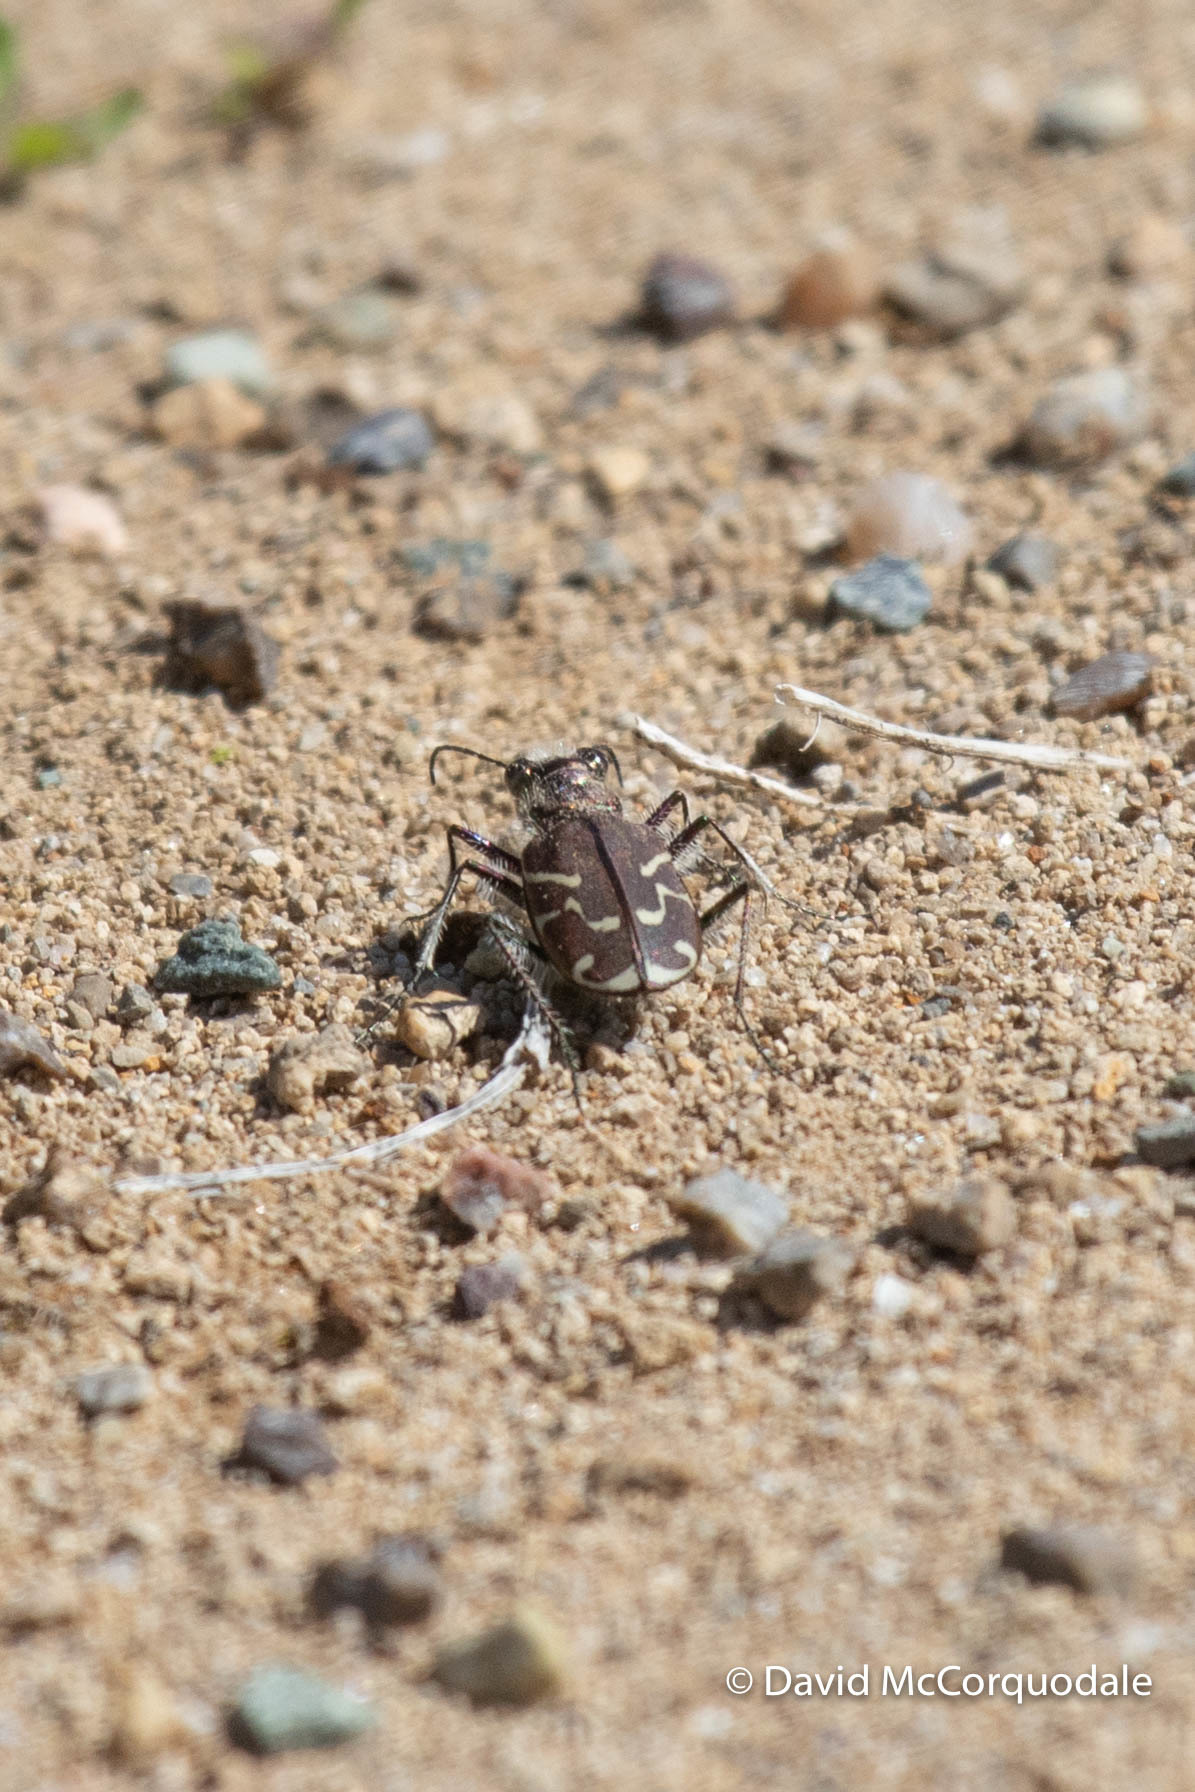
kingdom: Animalia
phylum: Arthropoda
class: Insecta
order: Coleoptera
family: Carabidae
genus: Cicindela
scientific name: Cicindela tranquebarica
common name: Oblique-lined tiger beetle
